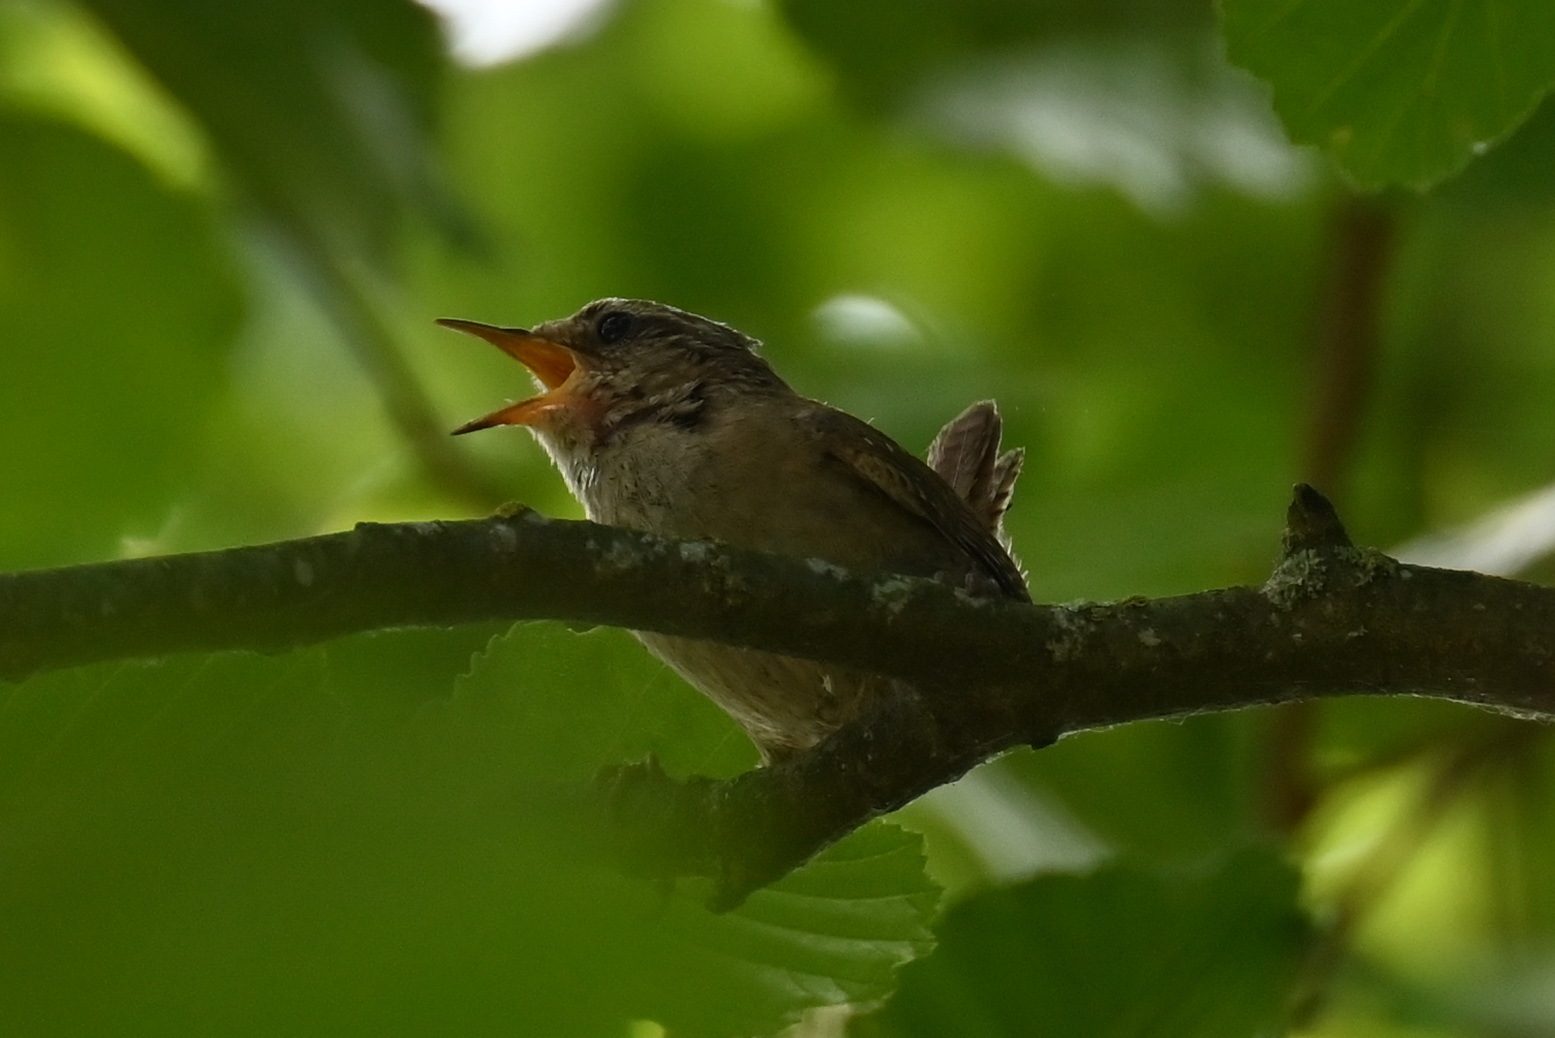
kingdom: Animalia
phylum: Chordata
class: Aves
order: Passeriformes
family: Troglodytidae
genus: Troglodytes
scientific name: Troglodytes troglodytes
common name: Eurasian wren
